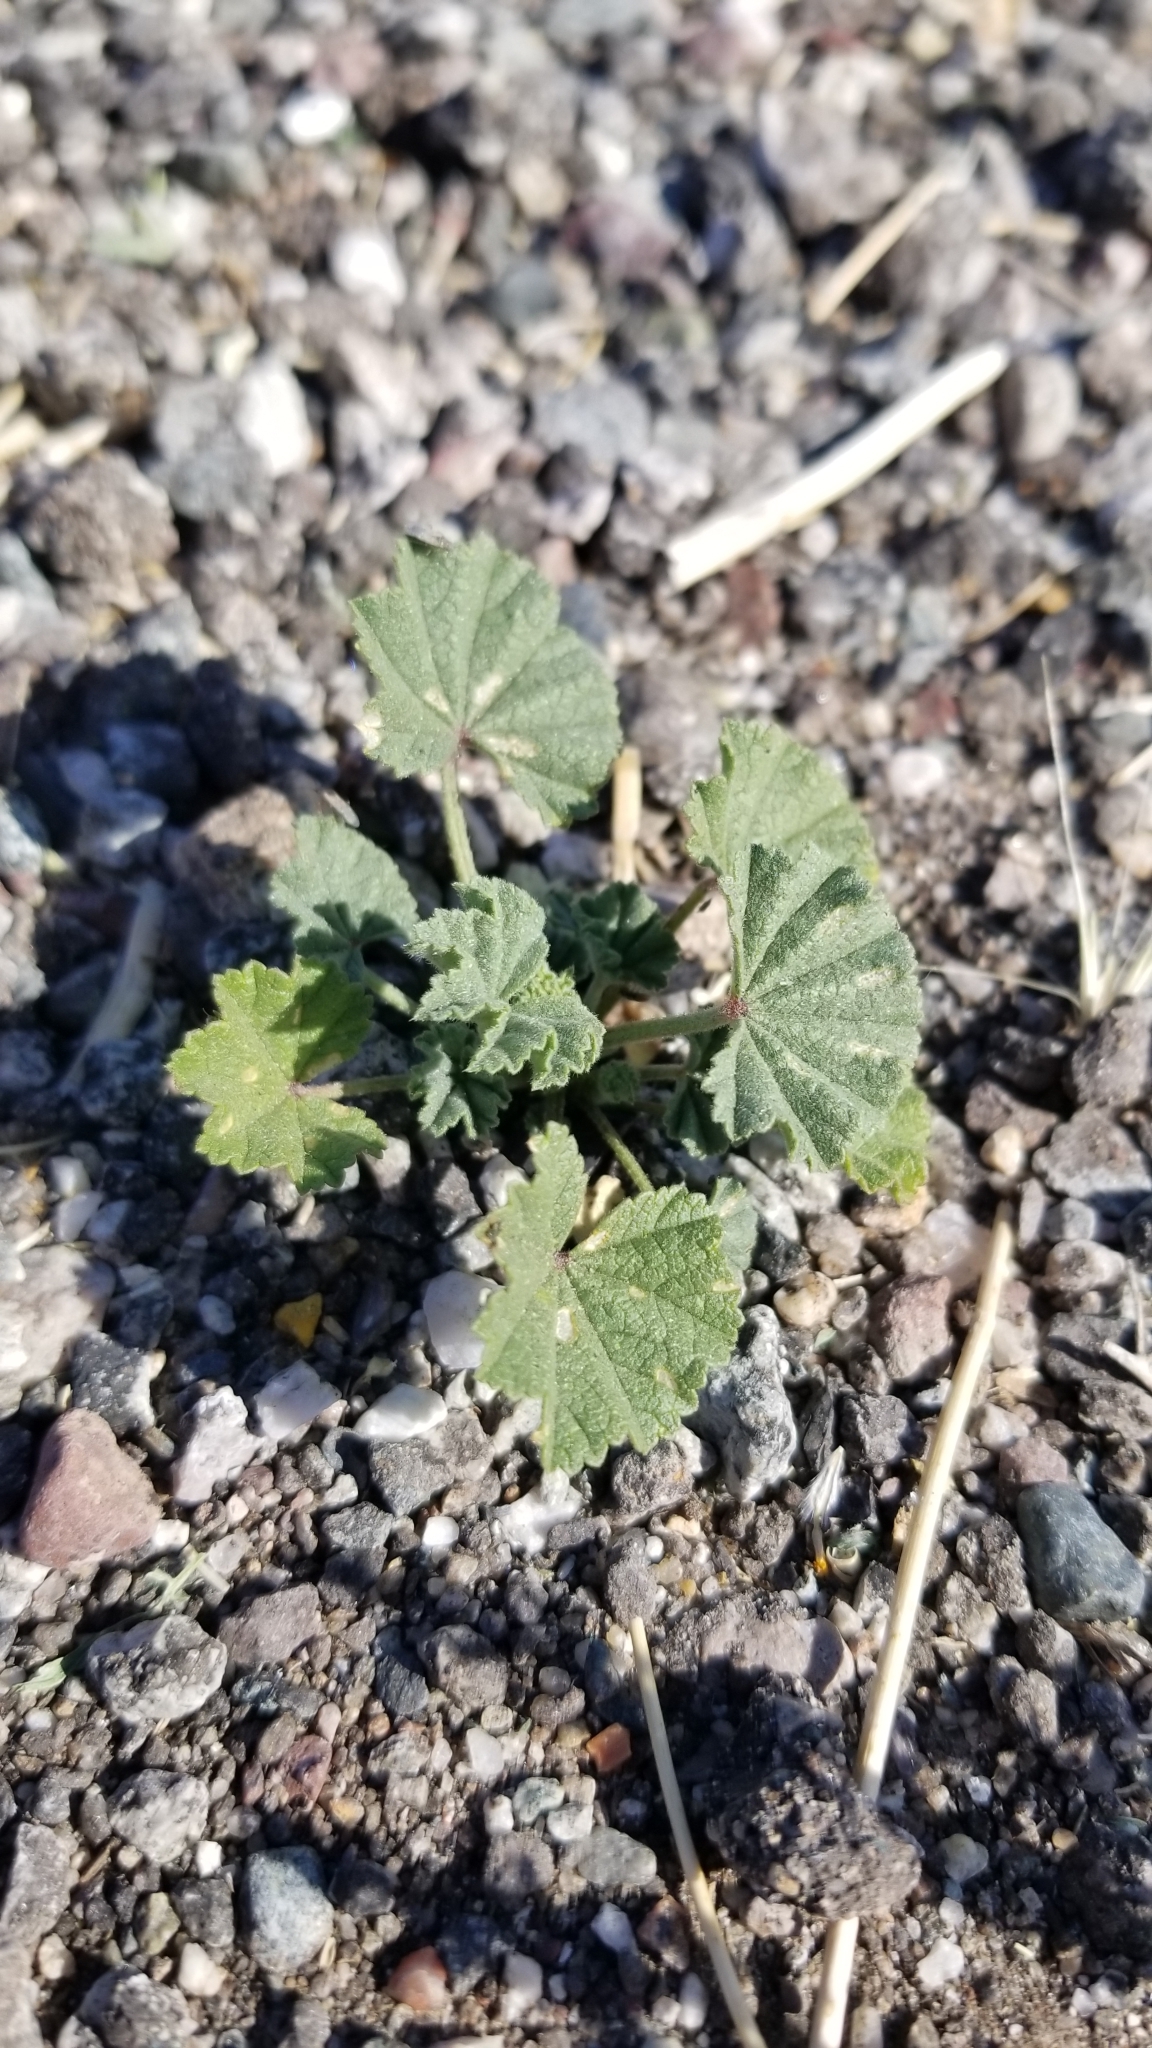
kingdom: Plantae
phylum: Tracheophyta
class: Magnoliopsida
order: Malvales
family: Malvaceae
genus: Malva
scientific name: Malva parviflora
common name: Least mallow
